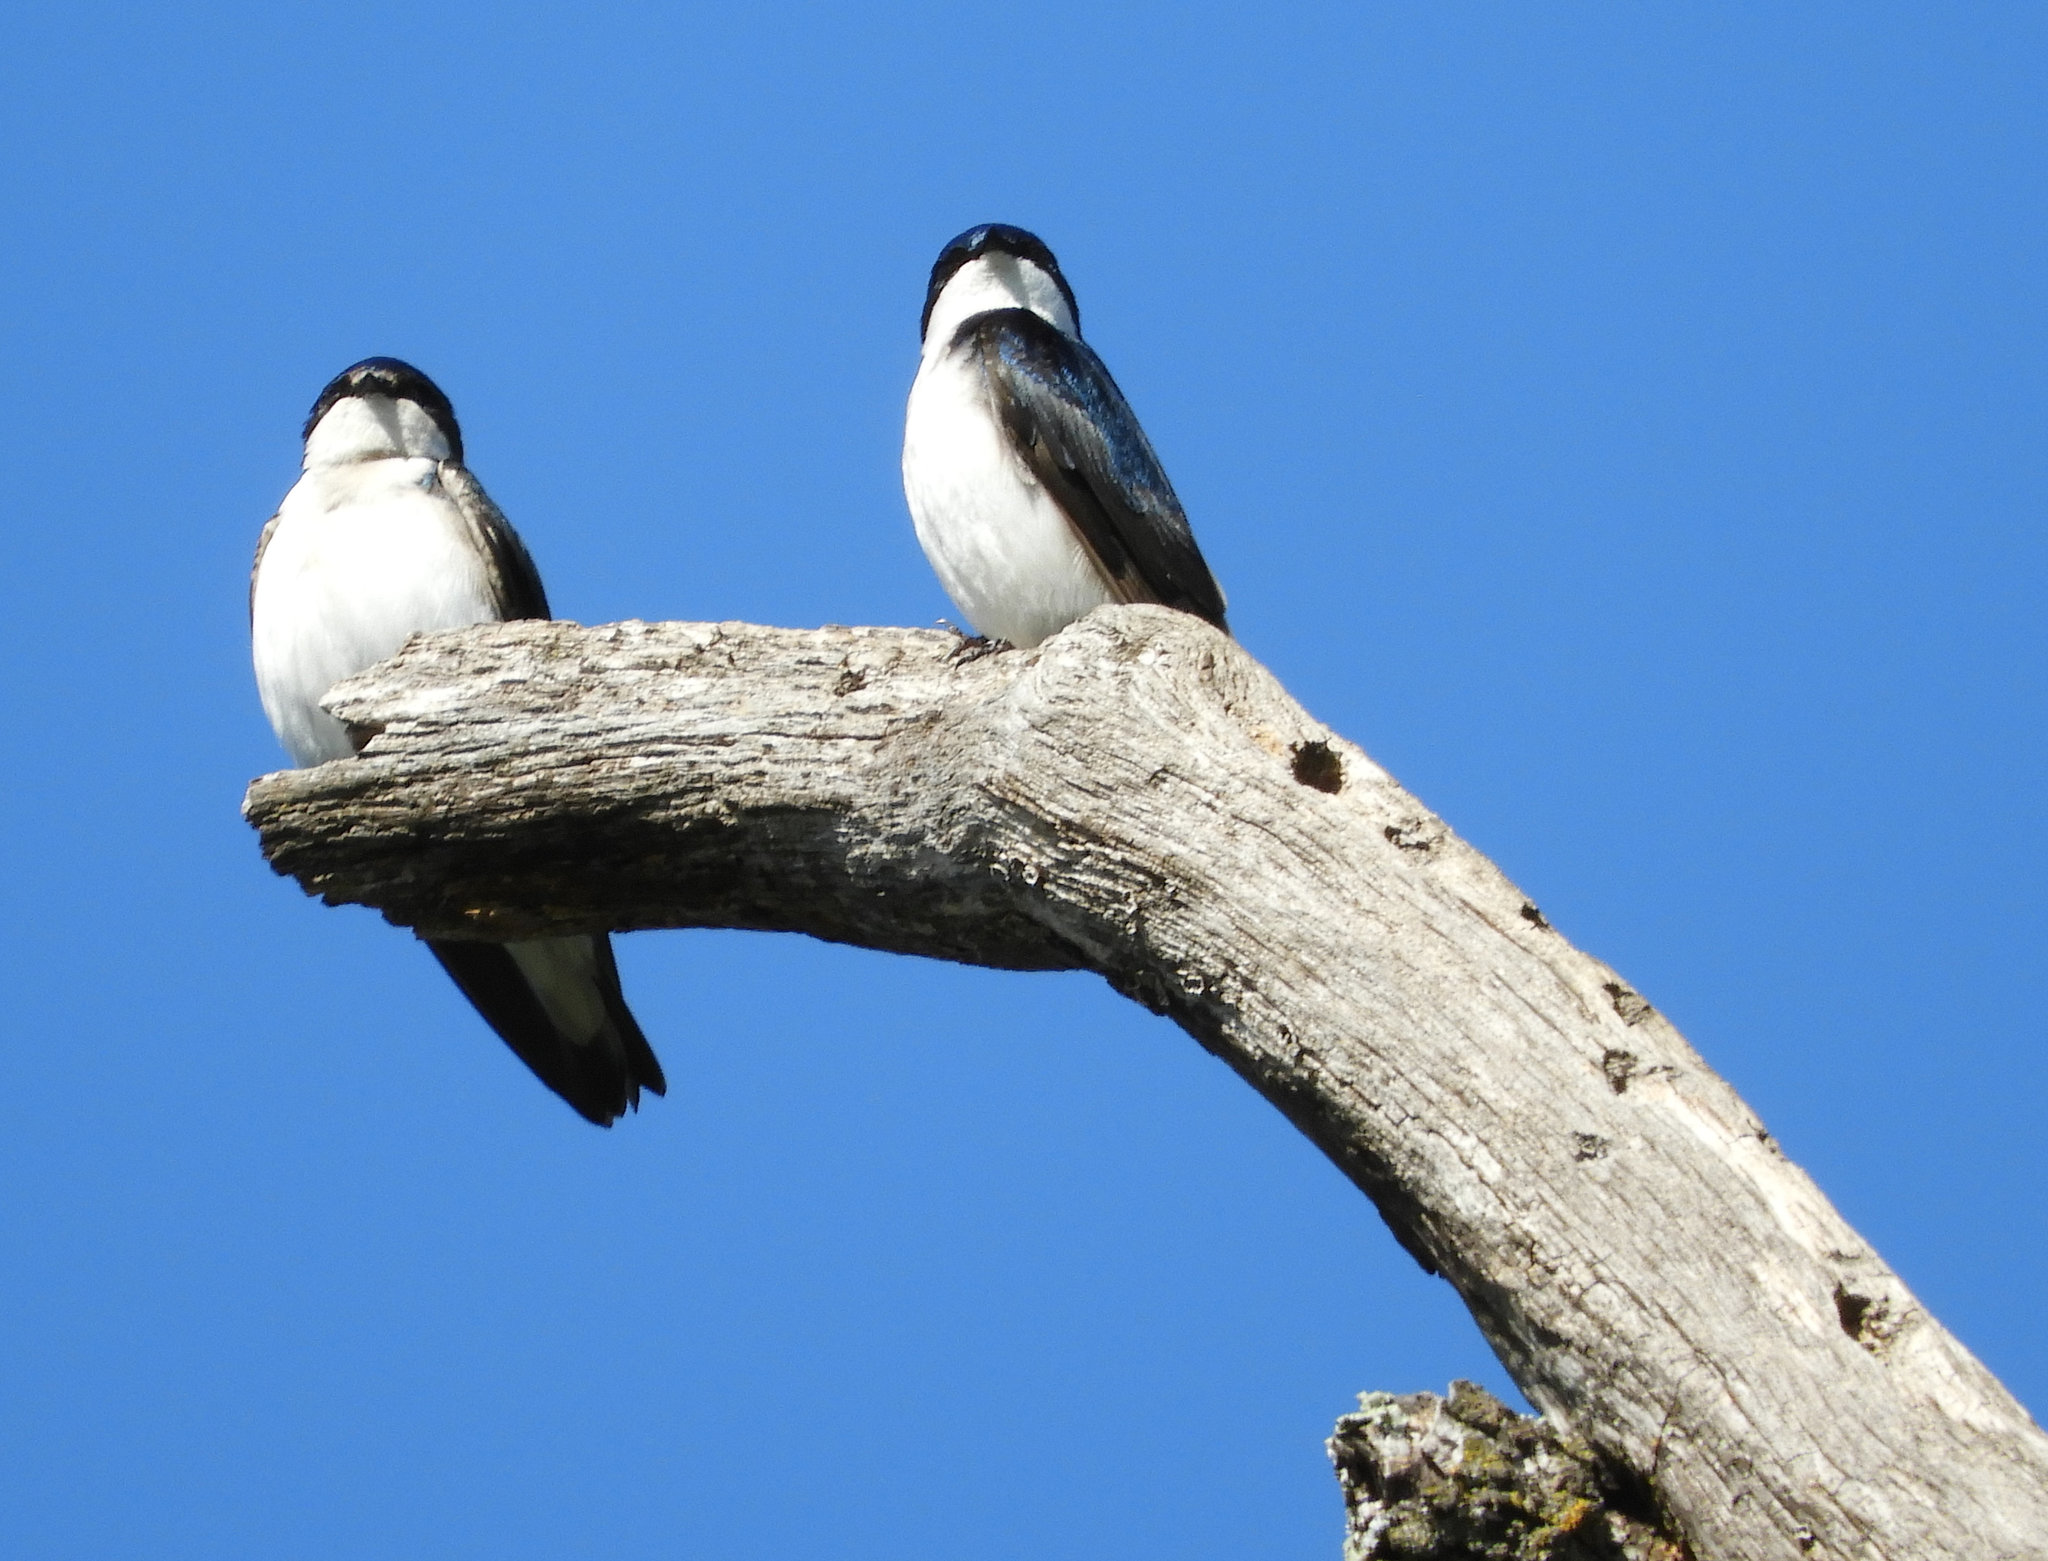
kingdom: Animalia
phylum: Chordata
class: Aves
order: Passeriformes
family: Hirundinidae
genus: Tachycineta
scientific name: Tachycineta bicolor
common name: Tree swallow
